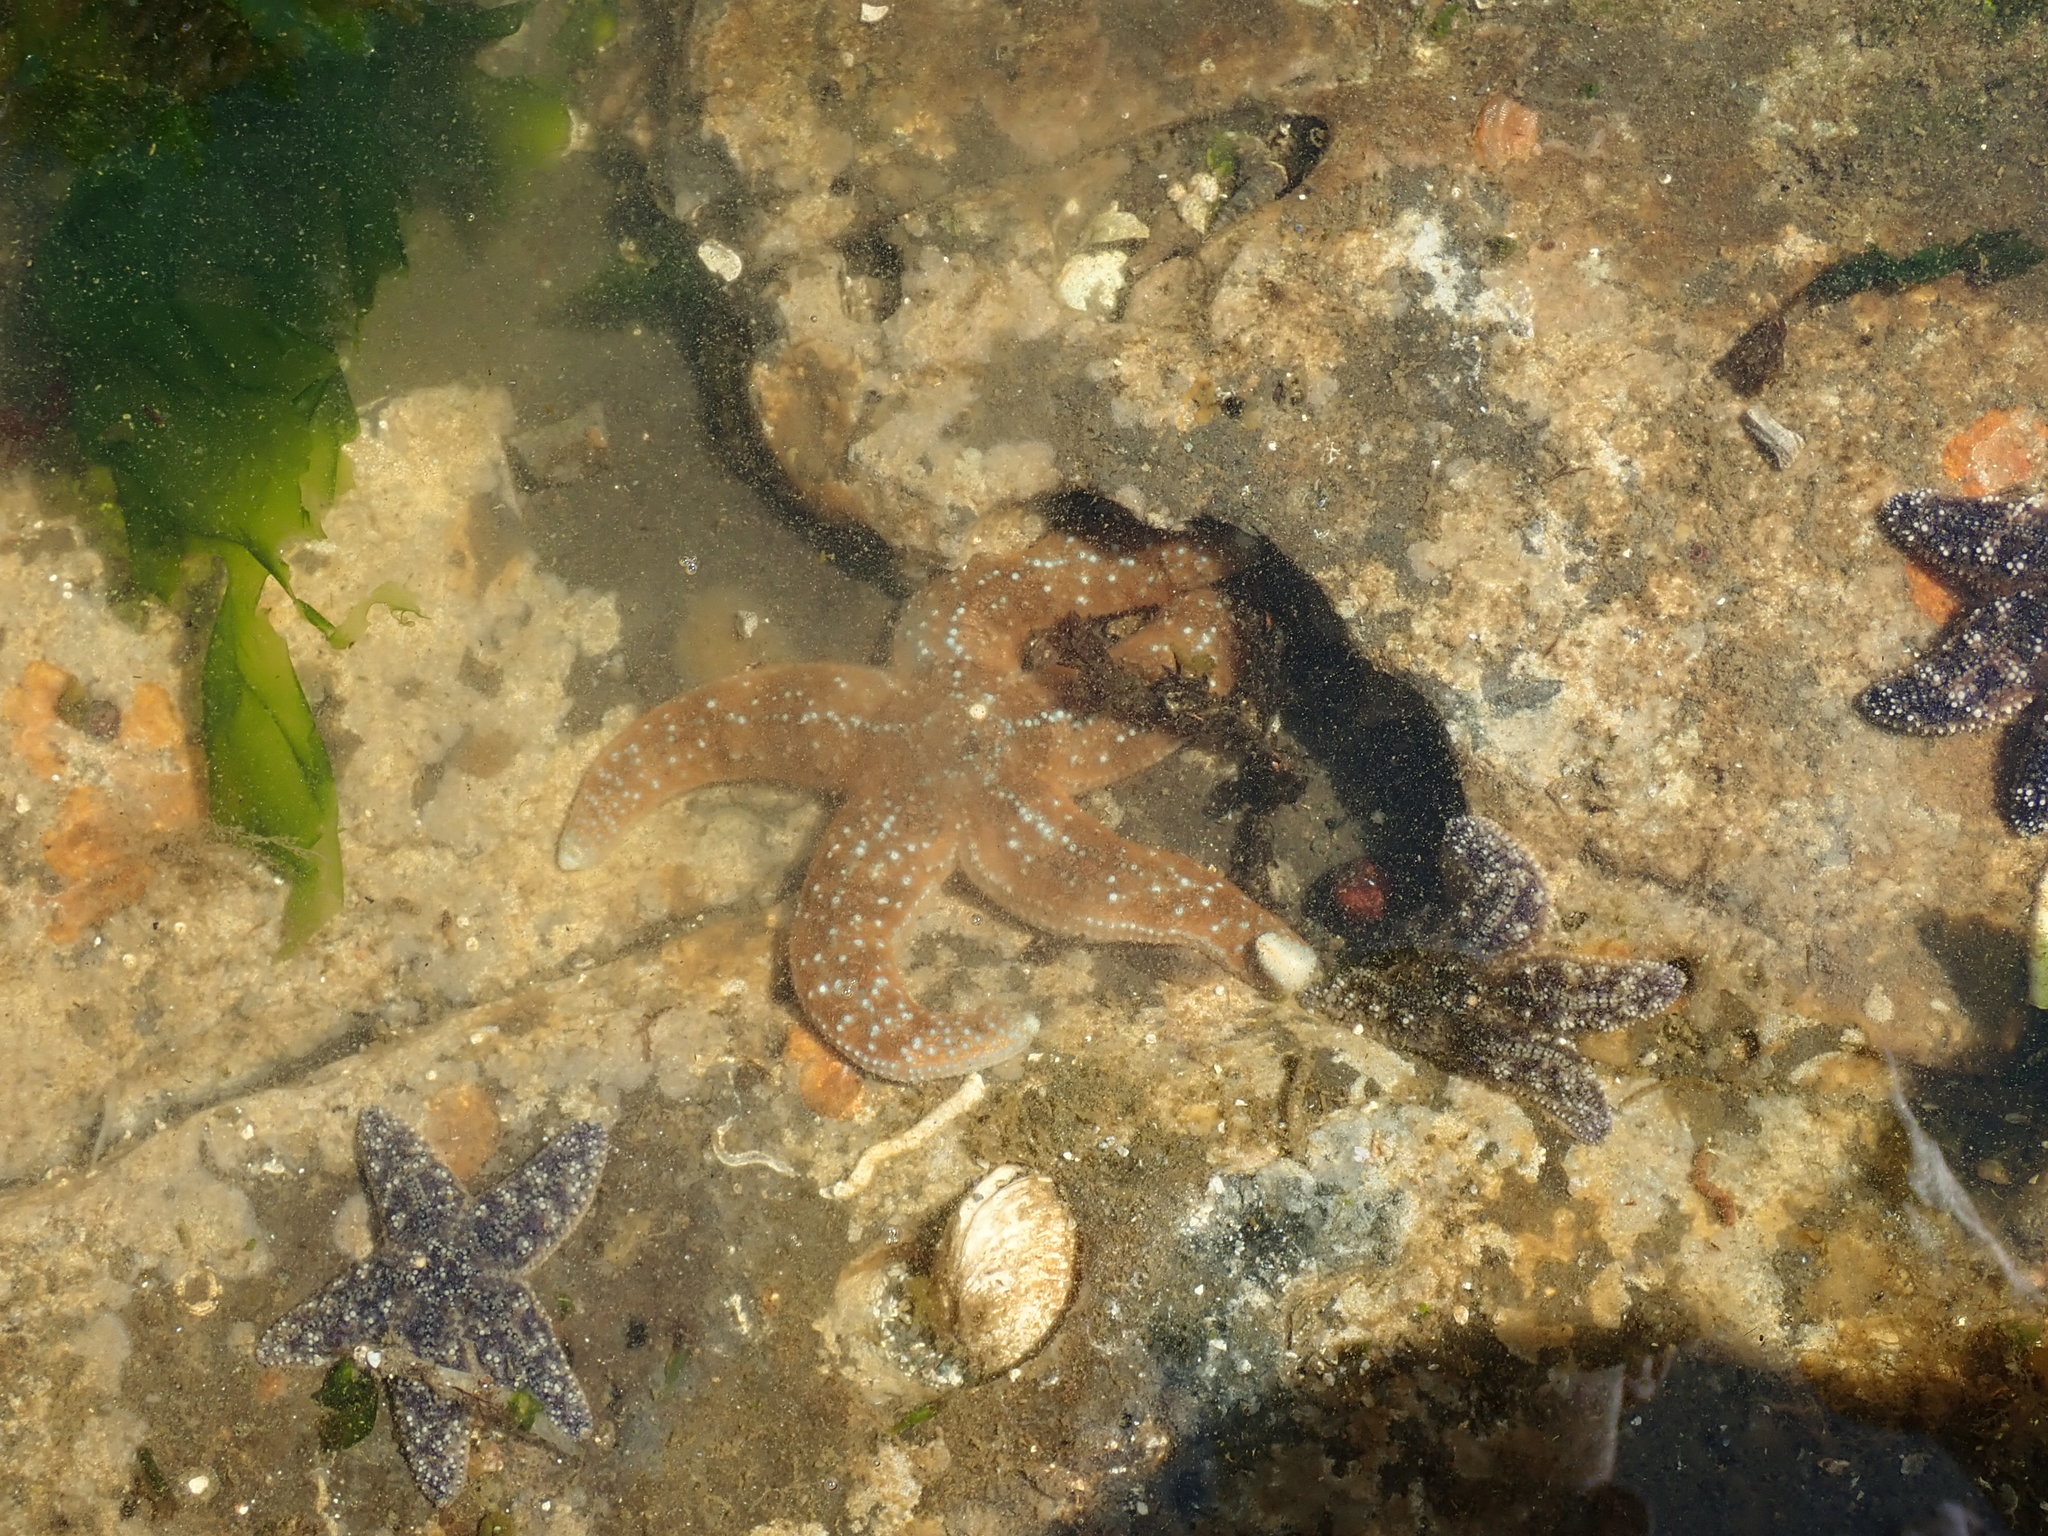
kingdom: Animalia
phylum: Echinodermata
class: Asteroidea
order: Forcipulatida
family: Asteriidae
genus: Evasterias
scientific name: Evasterias troschelii
